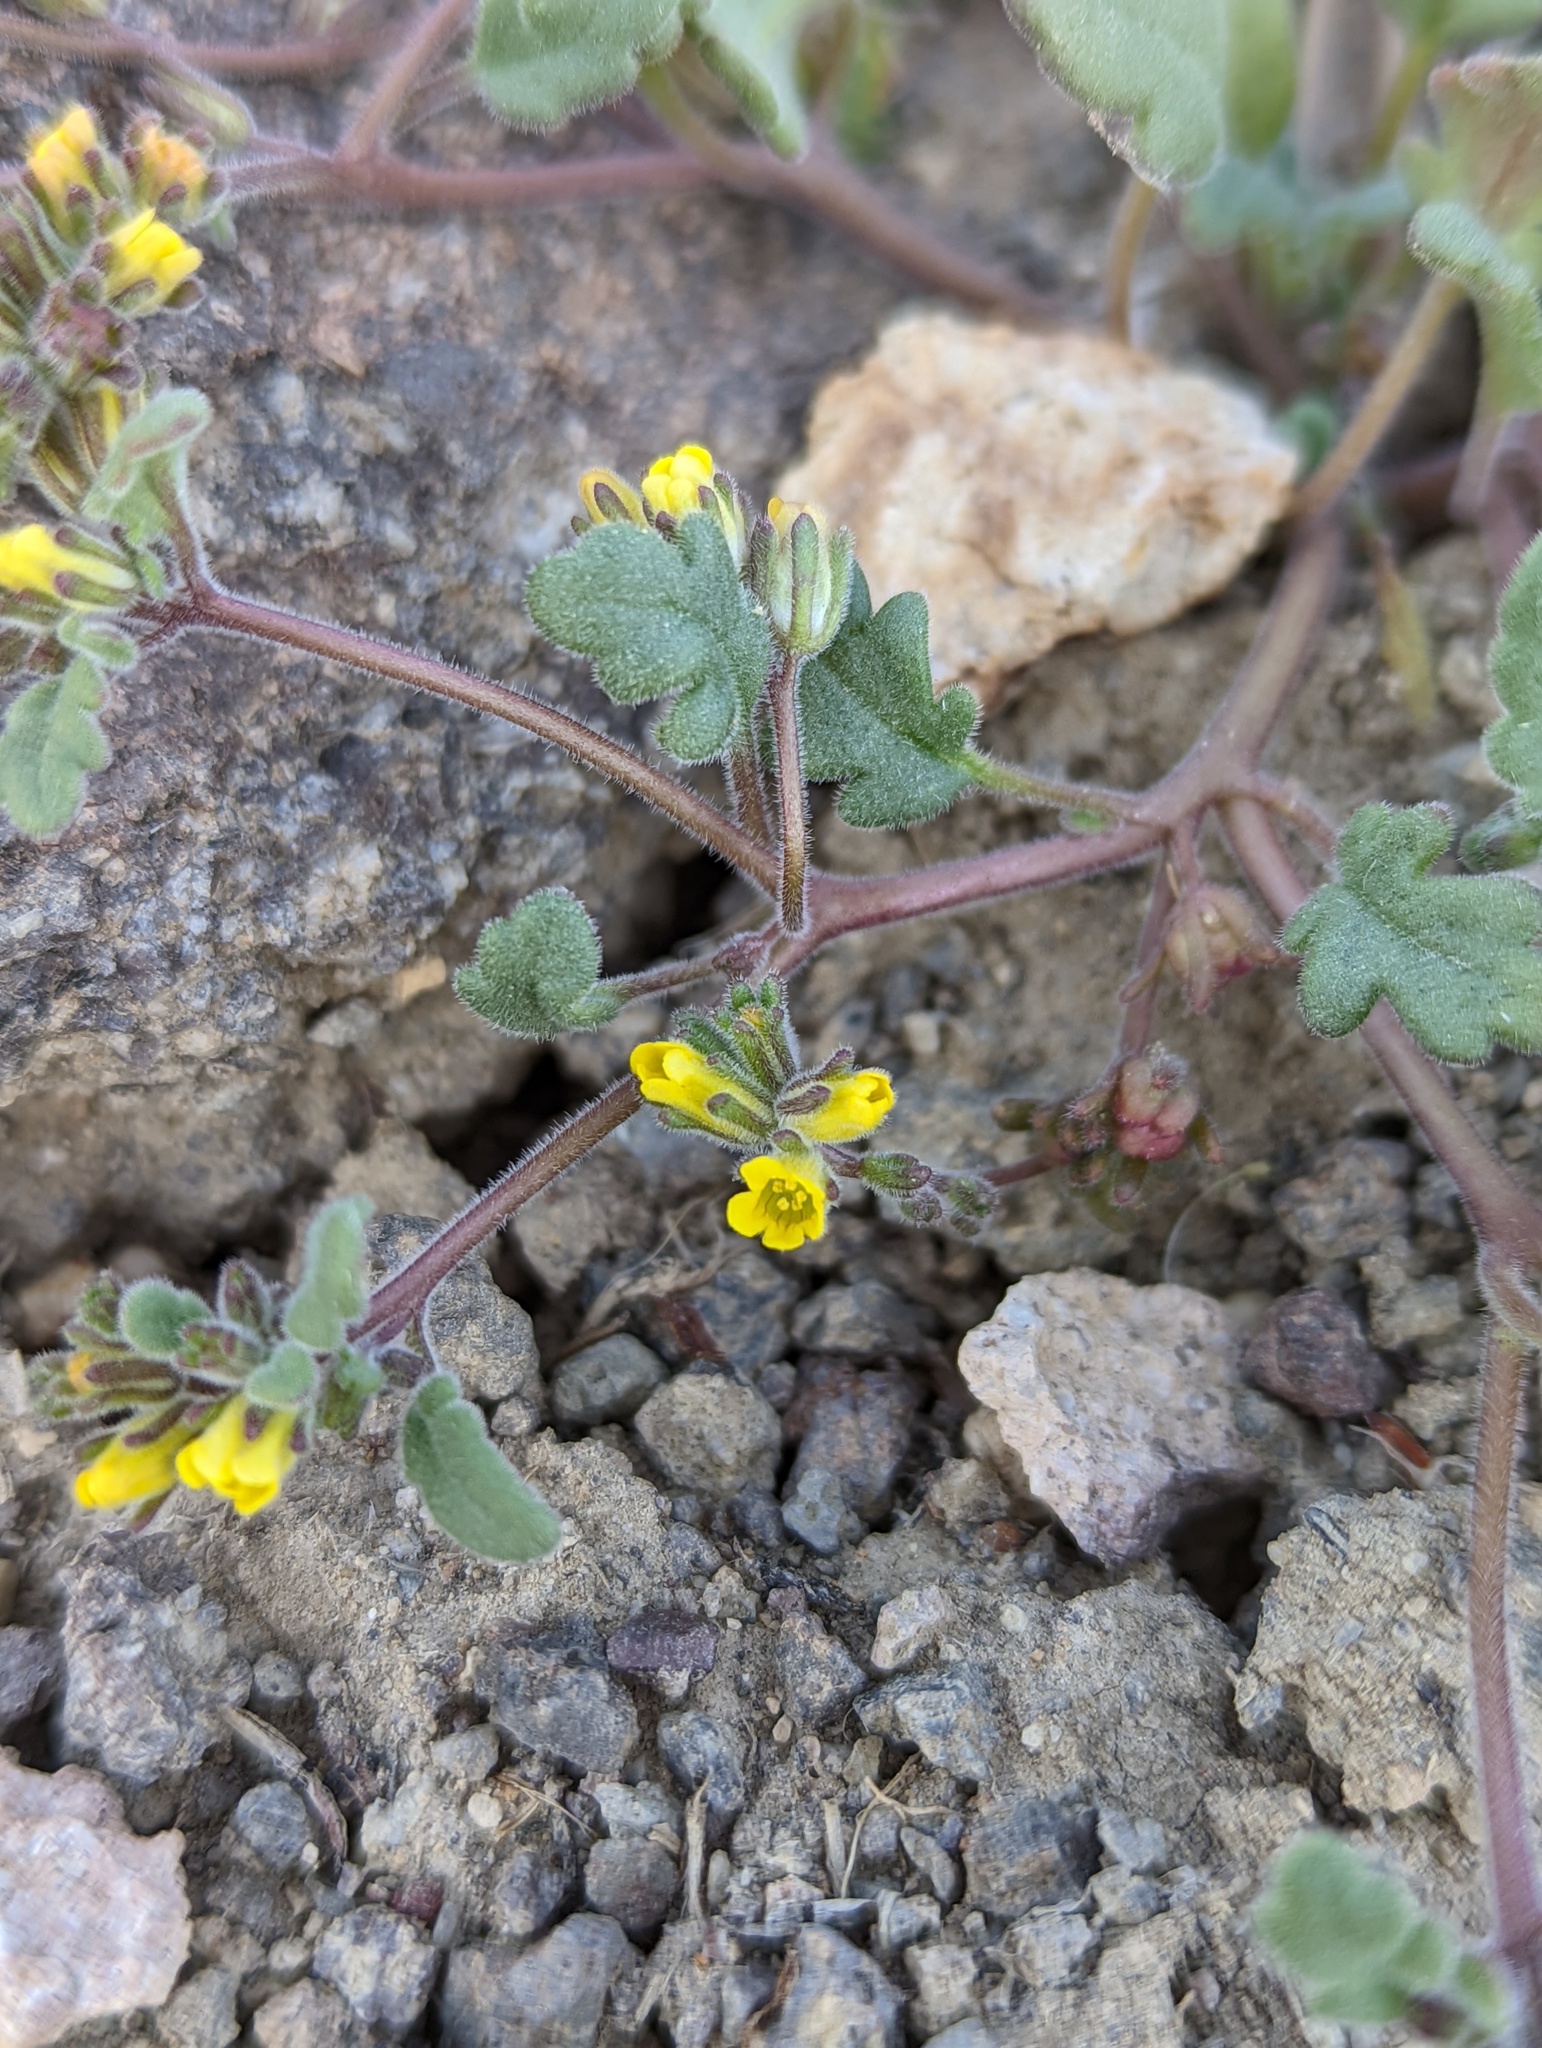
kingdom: Plantae
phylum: Tracheophyta
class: Magnoliopsida
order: Boraginales
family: Hydrophyllaceae
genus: Phacelia
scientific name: Phacelia monoensis
